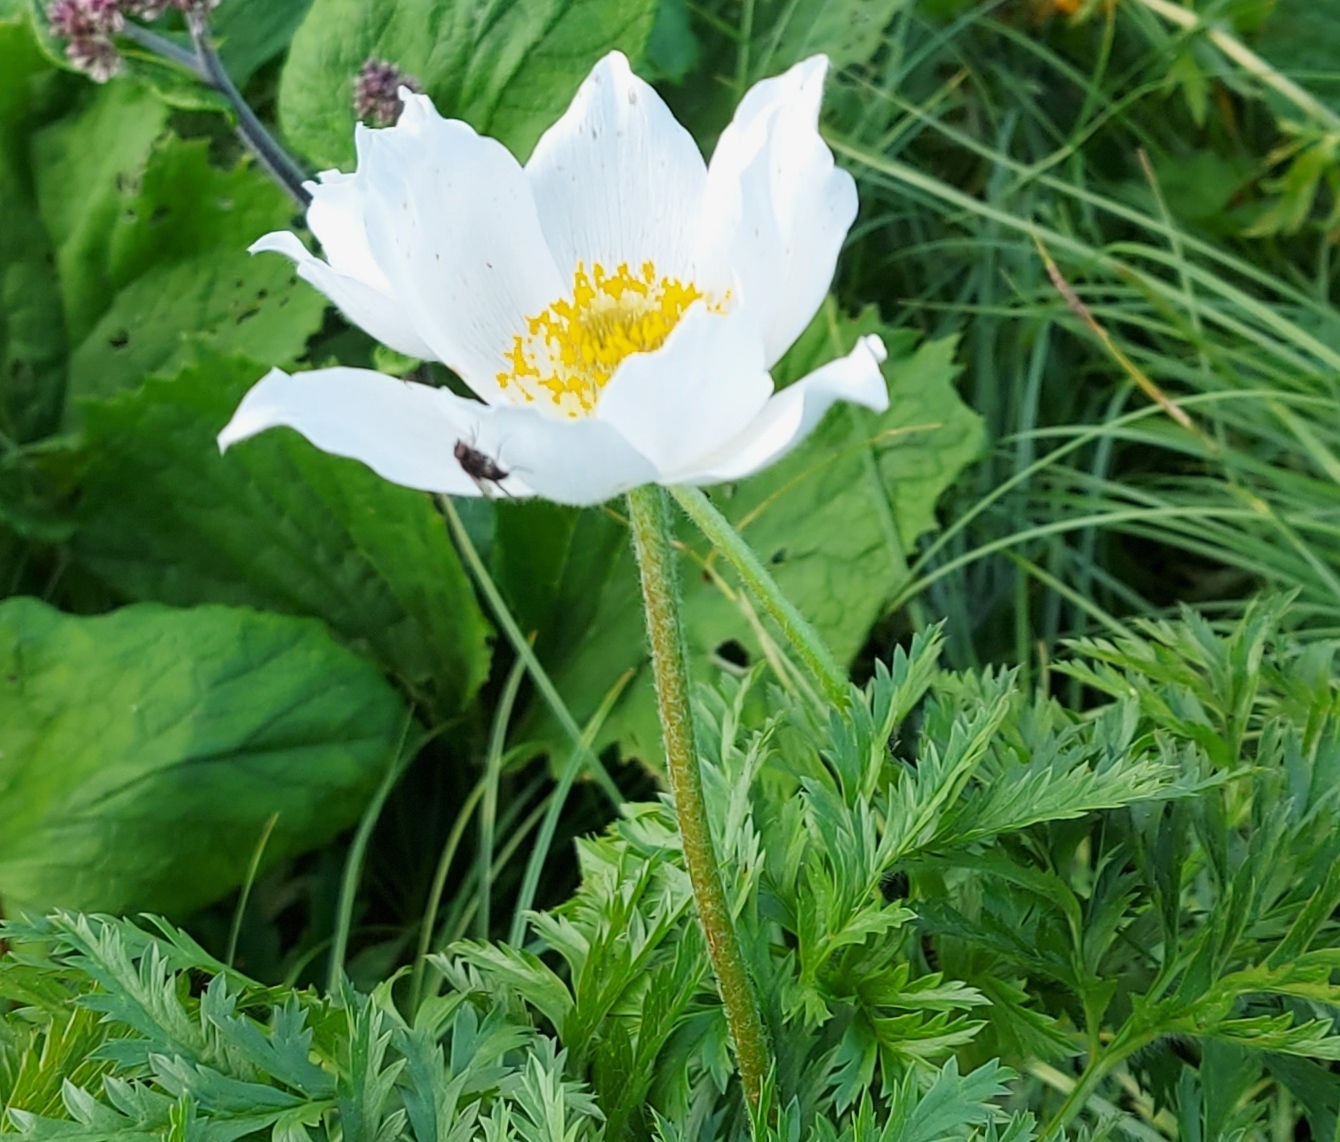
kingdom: Plantae
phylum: Tracheophyta
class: Magnoliopsida
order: Ranunculales
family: Ranunculaceae
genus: Pulsatilla
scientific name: Pulsatilla alpina
